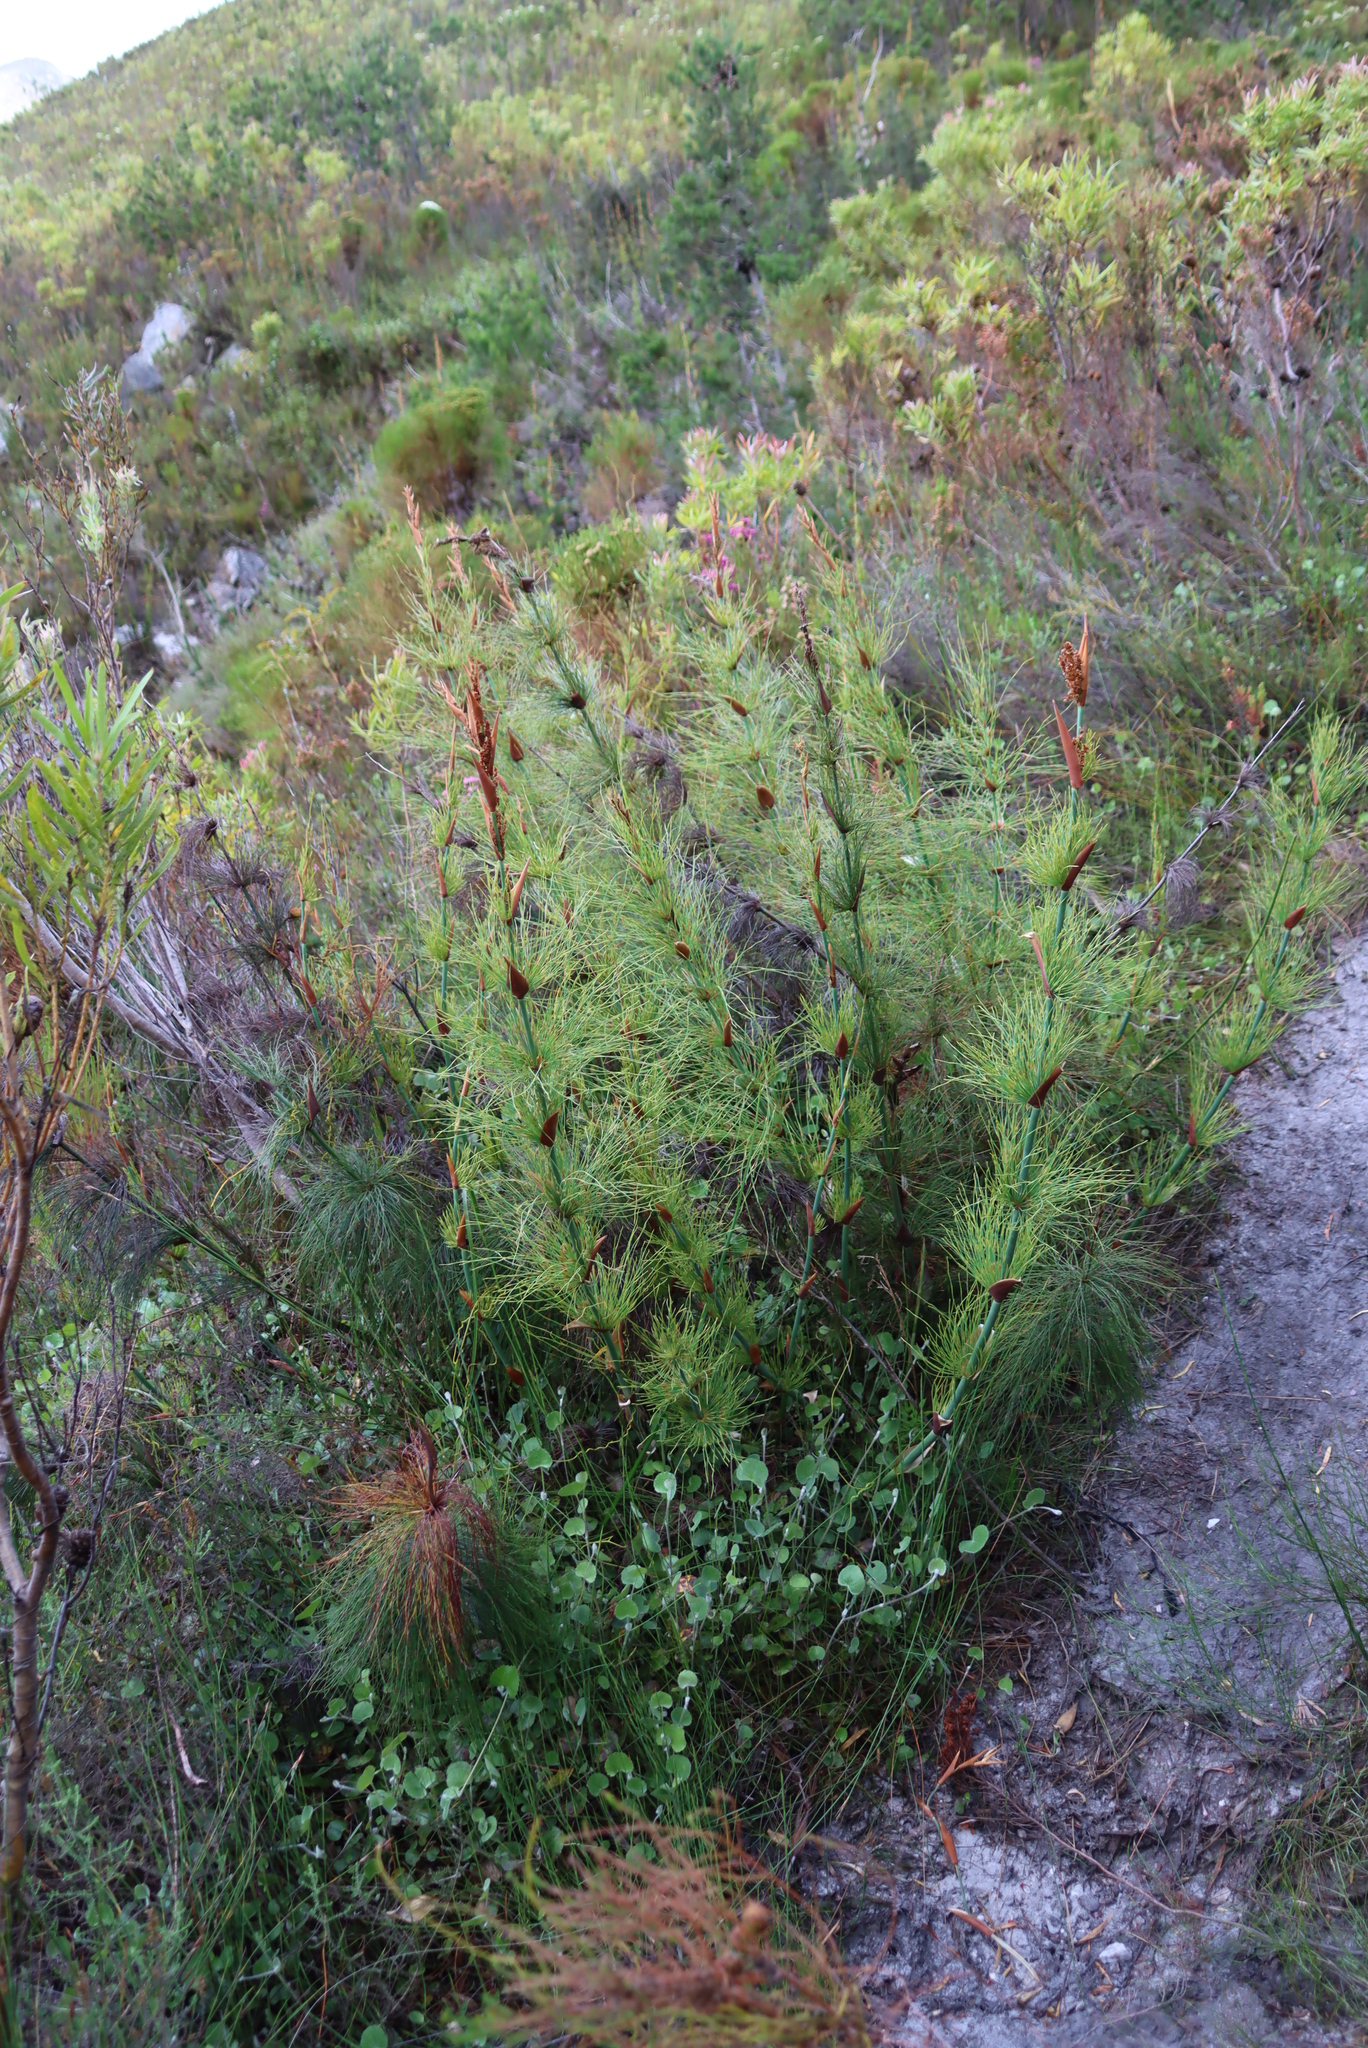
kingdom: Plantae
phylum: Tracheophyta
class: Liliopsida
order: Poales
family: Restionaceae
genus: Elegia
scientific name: Elegia capensis
